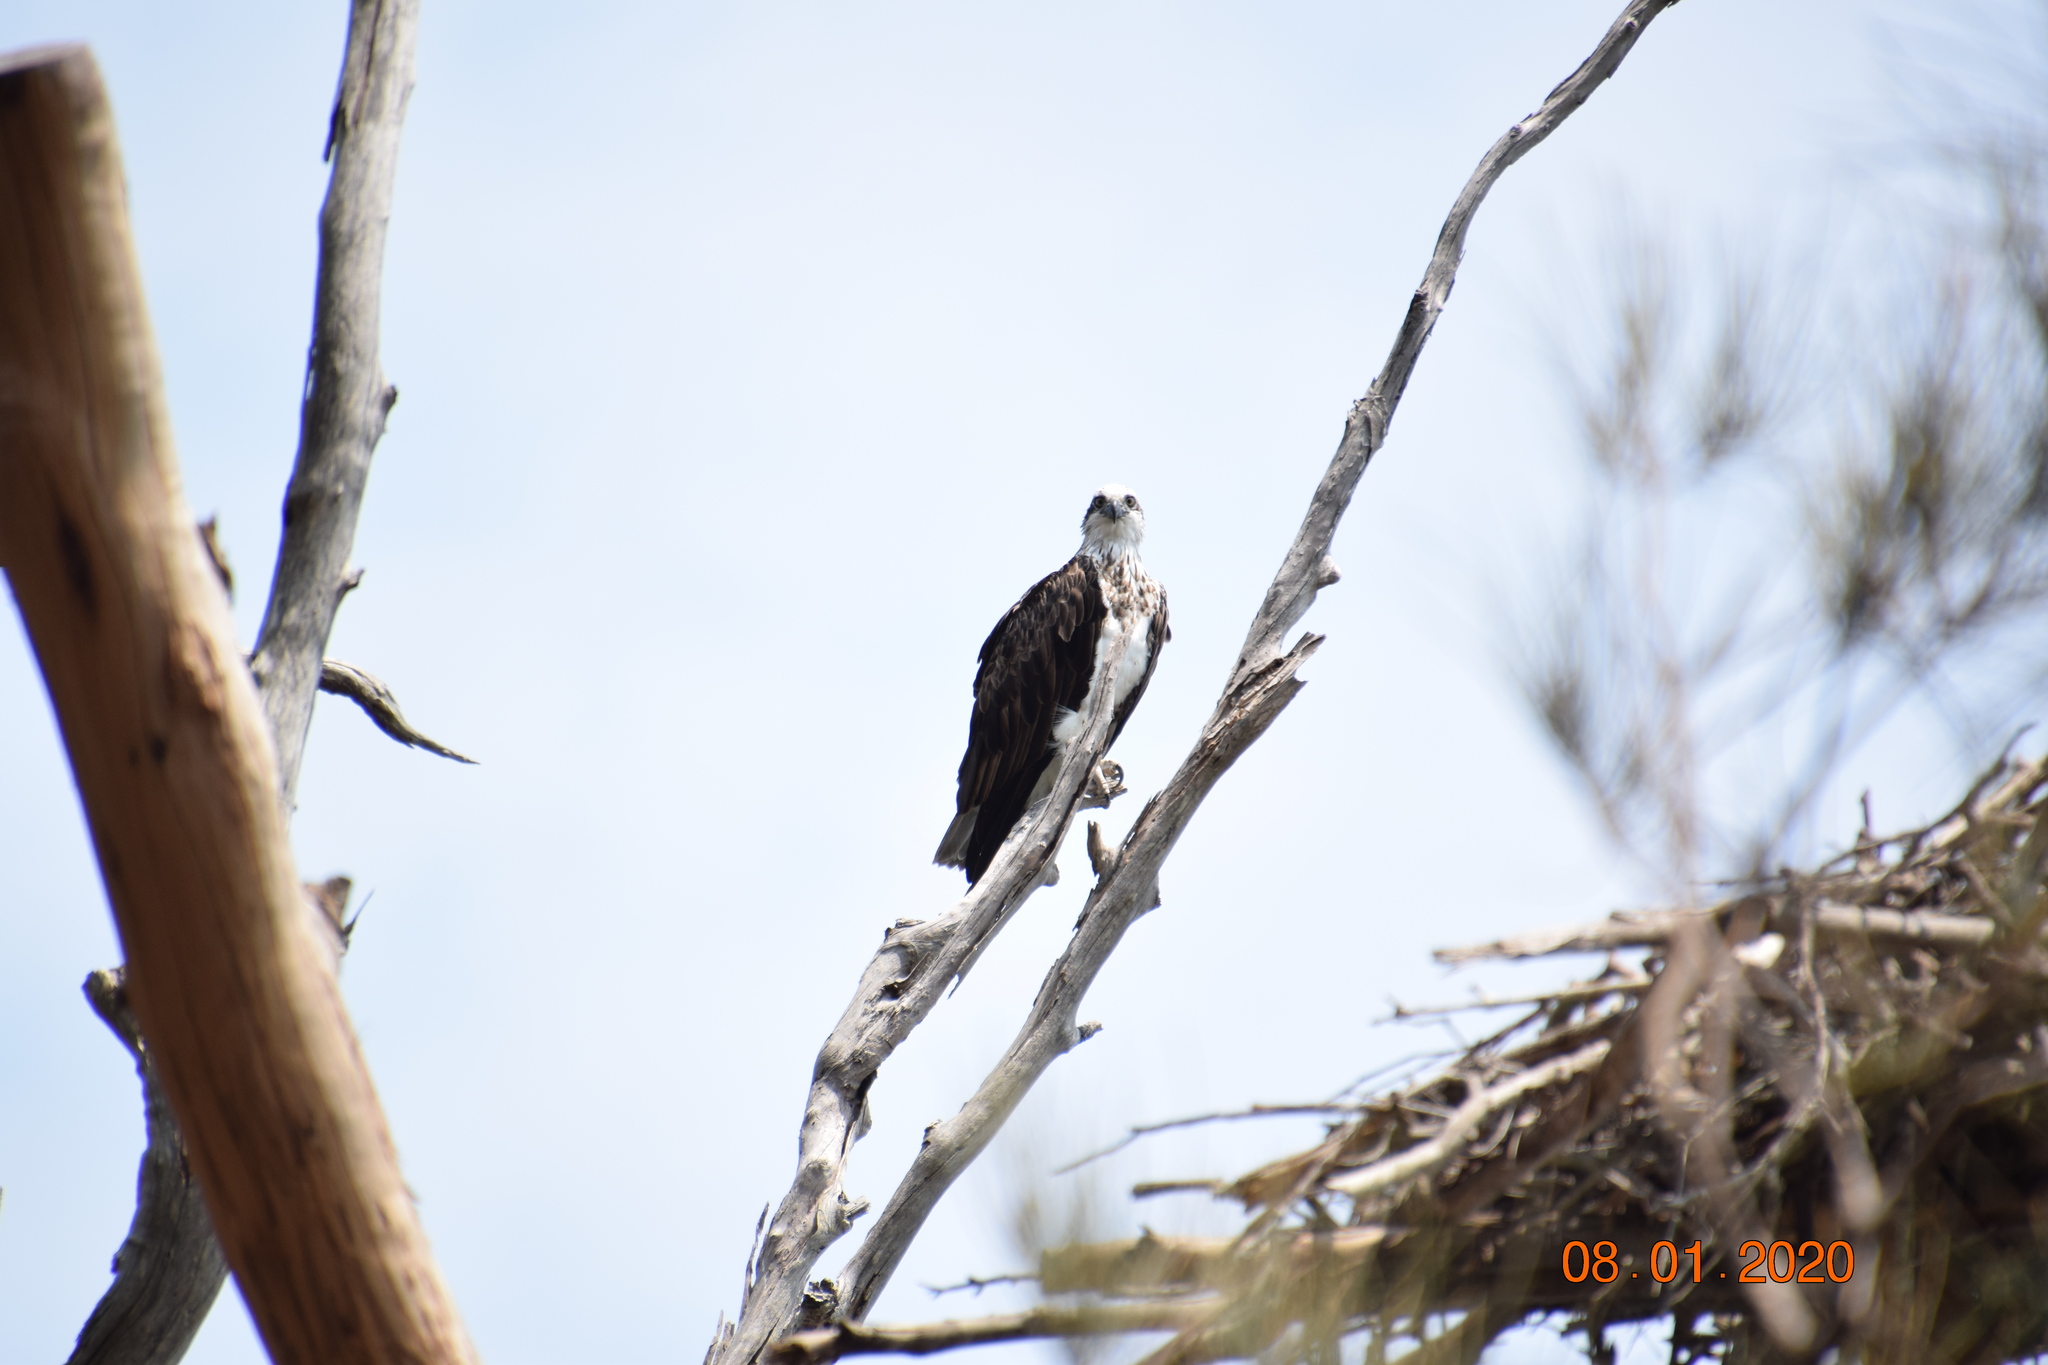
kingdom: Animalia
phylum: Chordata
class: Aves
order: Accipitriformes
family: Pandionidae
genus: Pandion
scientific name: Pandion cristatus
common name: Eastern osprey
